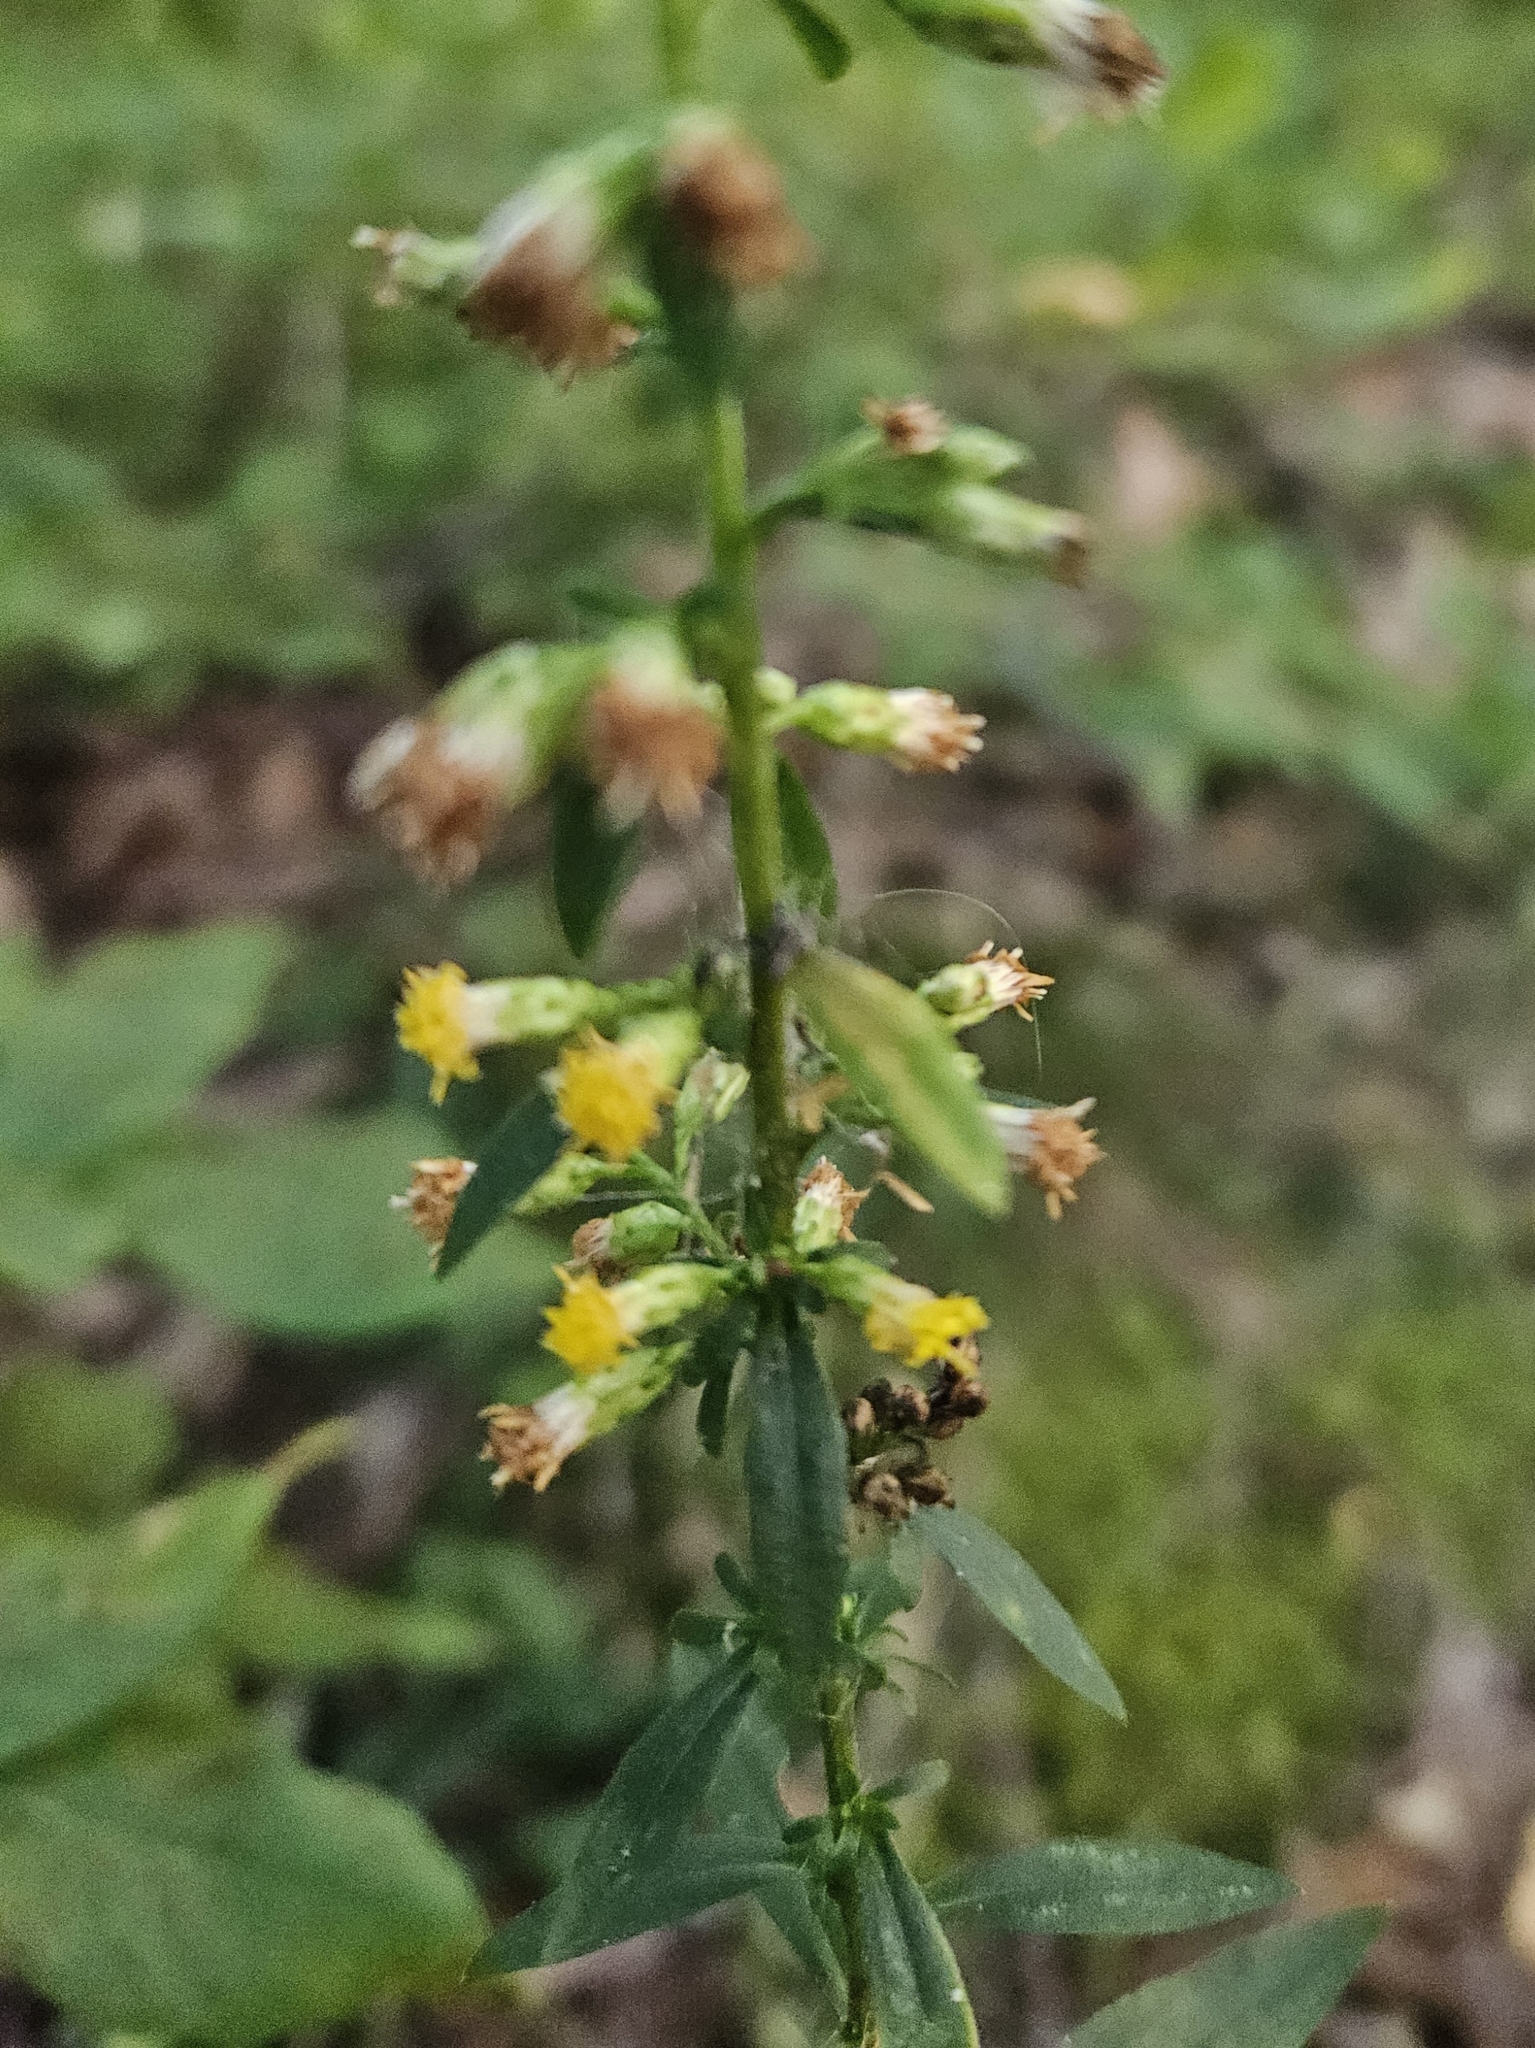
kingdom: Plantae
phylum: Tracheophyta
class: Magnoliopsida
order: Asterales
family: Asteraceae
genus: Solidago
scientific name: Solidago hispida
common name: Hairy goldenrod
